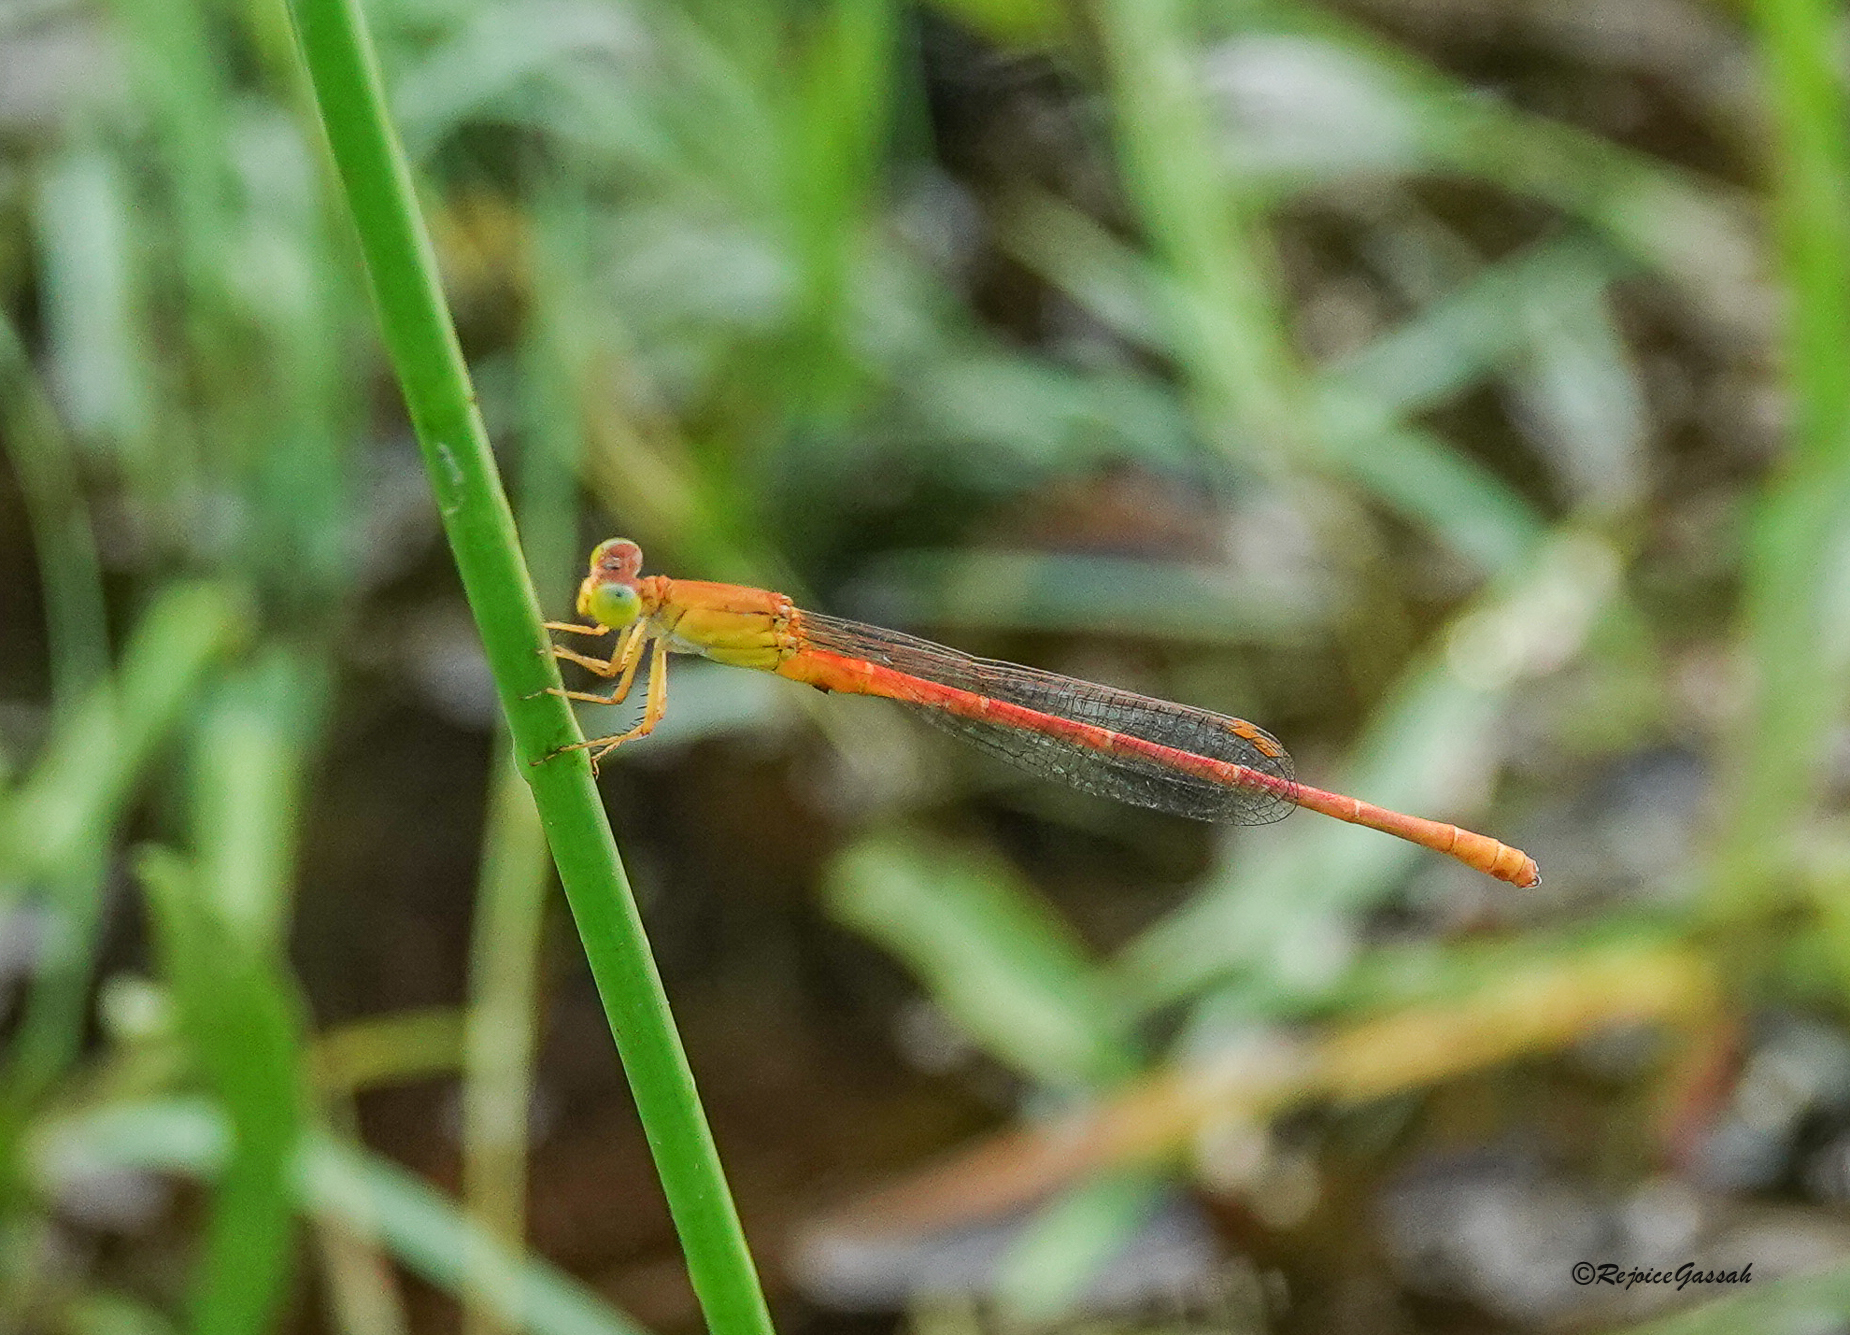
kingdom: Animalia
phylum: Arthropoda
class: Insecta
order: Odonata
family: Coenagrionidae
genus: Ceriagrion
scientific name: Ceriagrion rubiae
